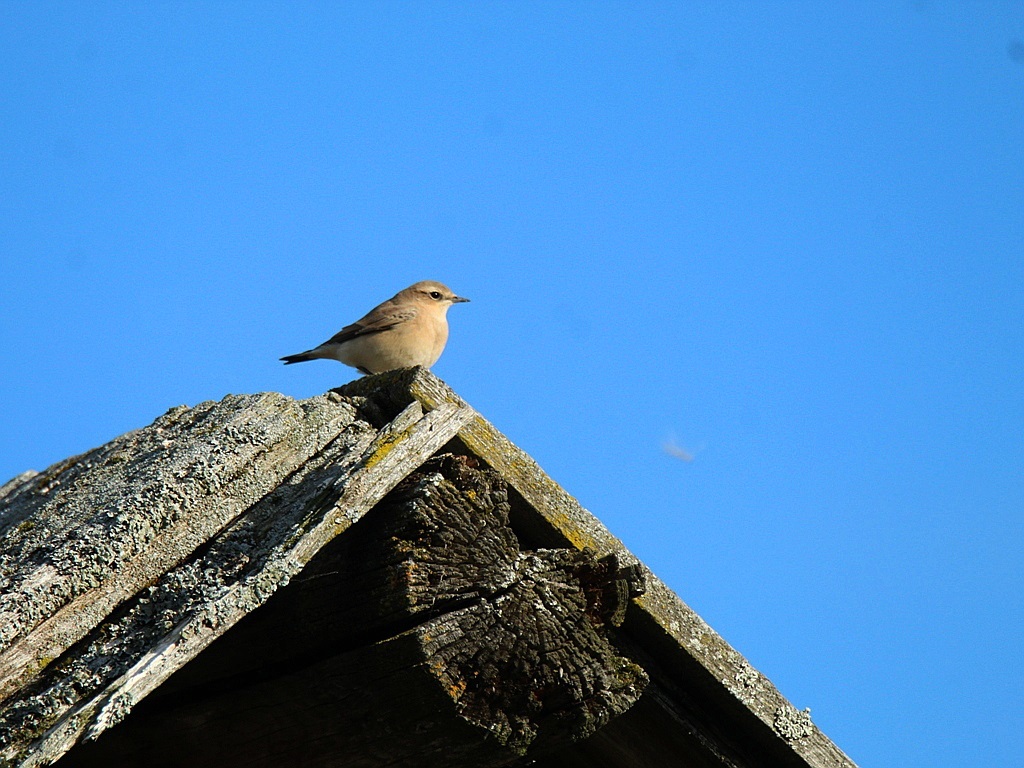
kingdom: Animalia
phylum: Chordata
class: Aves
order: Passeriformes
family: Muscicapidae
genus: Oenanthe
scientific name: Oenanthe oenanthe
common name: Northern wheatear
